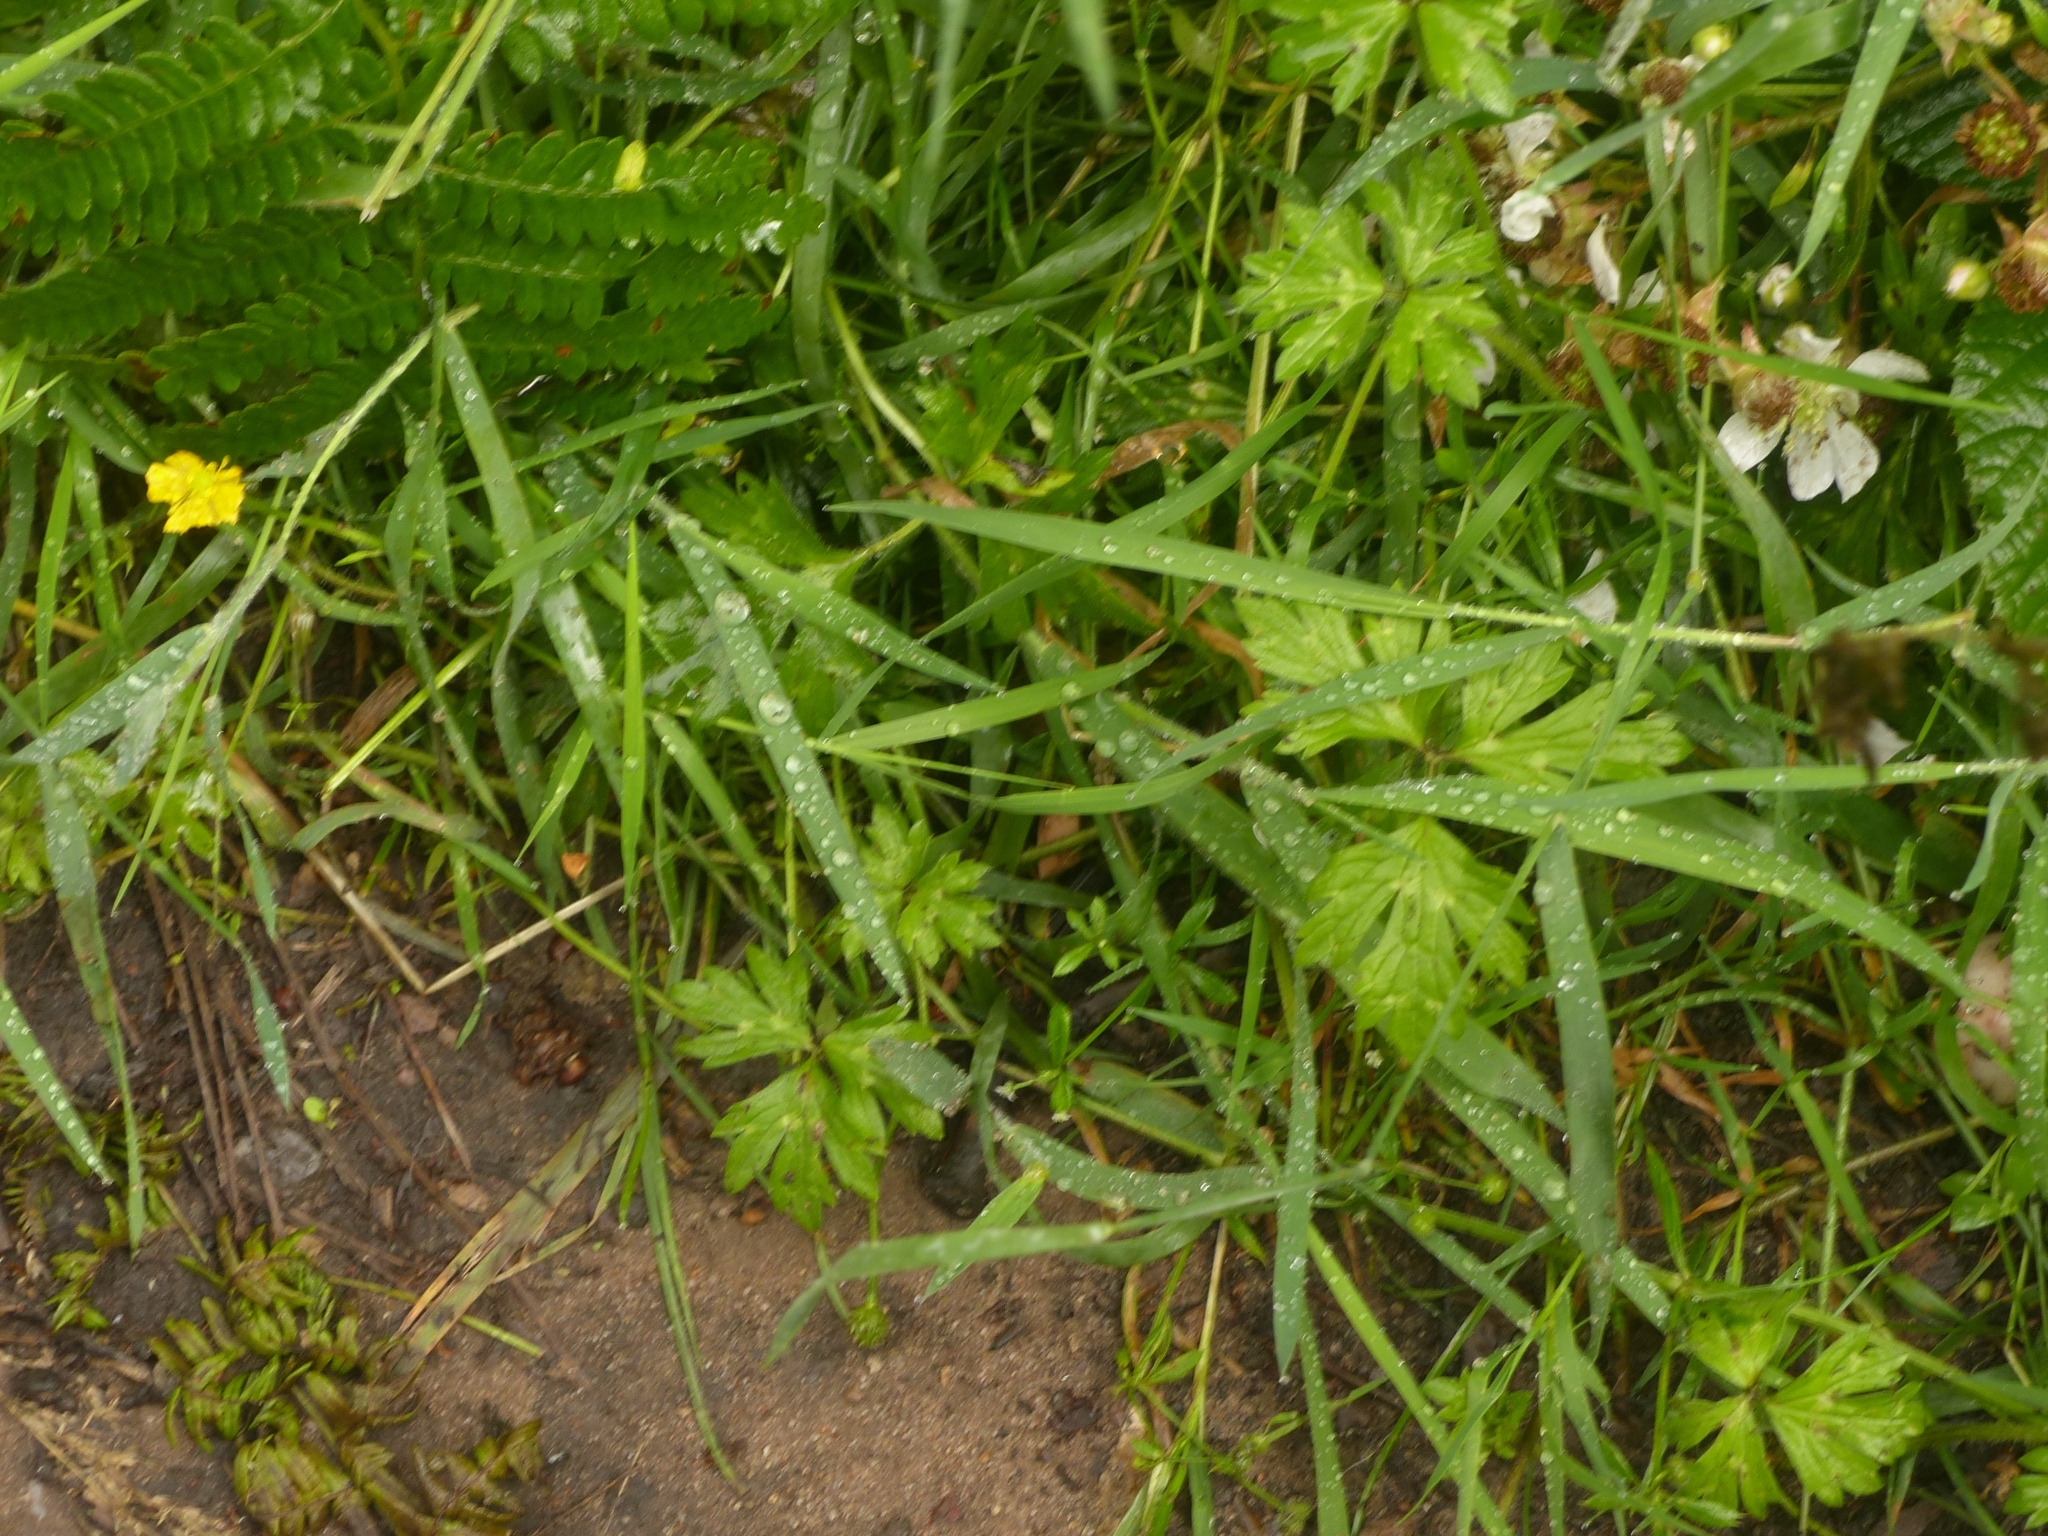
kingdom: Plantae
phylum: Tracheophyta
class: Magnoliopsida
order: Ranunculales
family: Ranunculaceae
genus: Ranunculus
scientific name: Ranunculus repens
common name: Creeping buttercup
